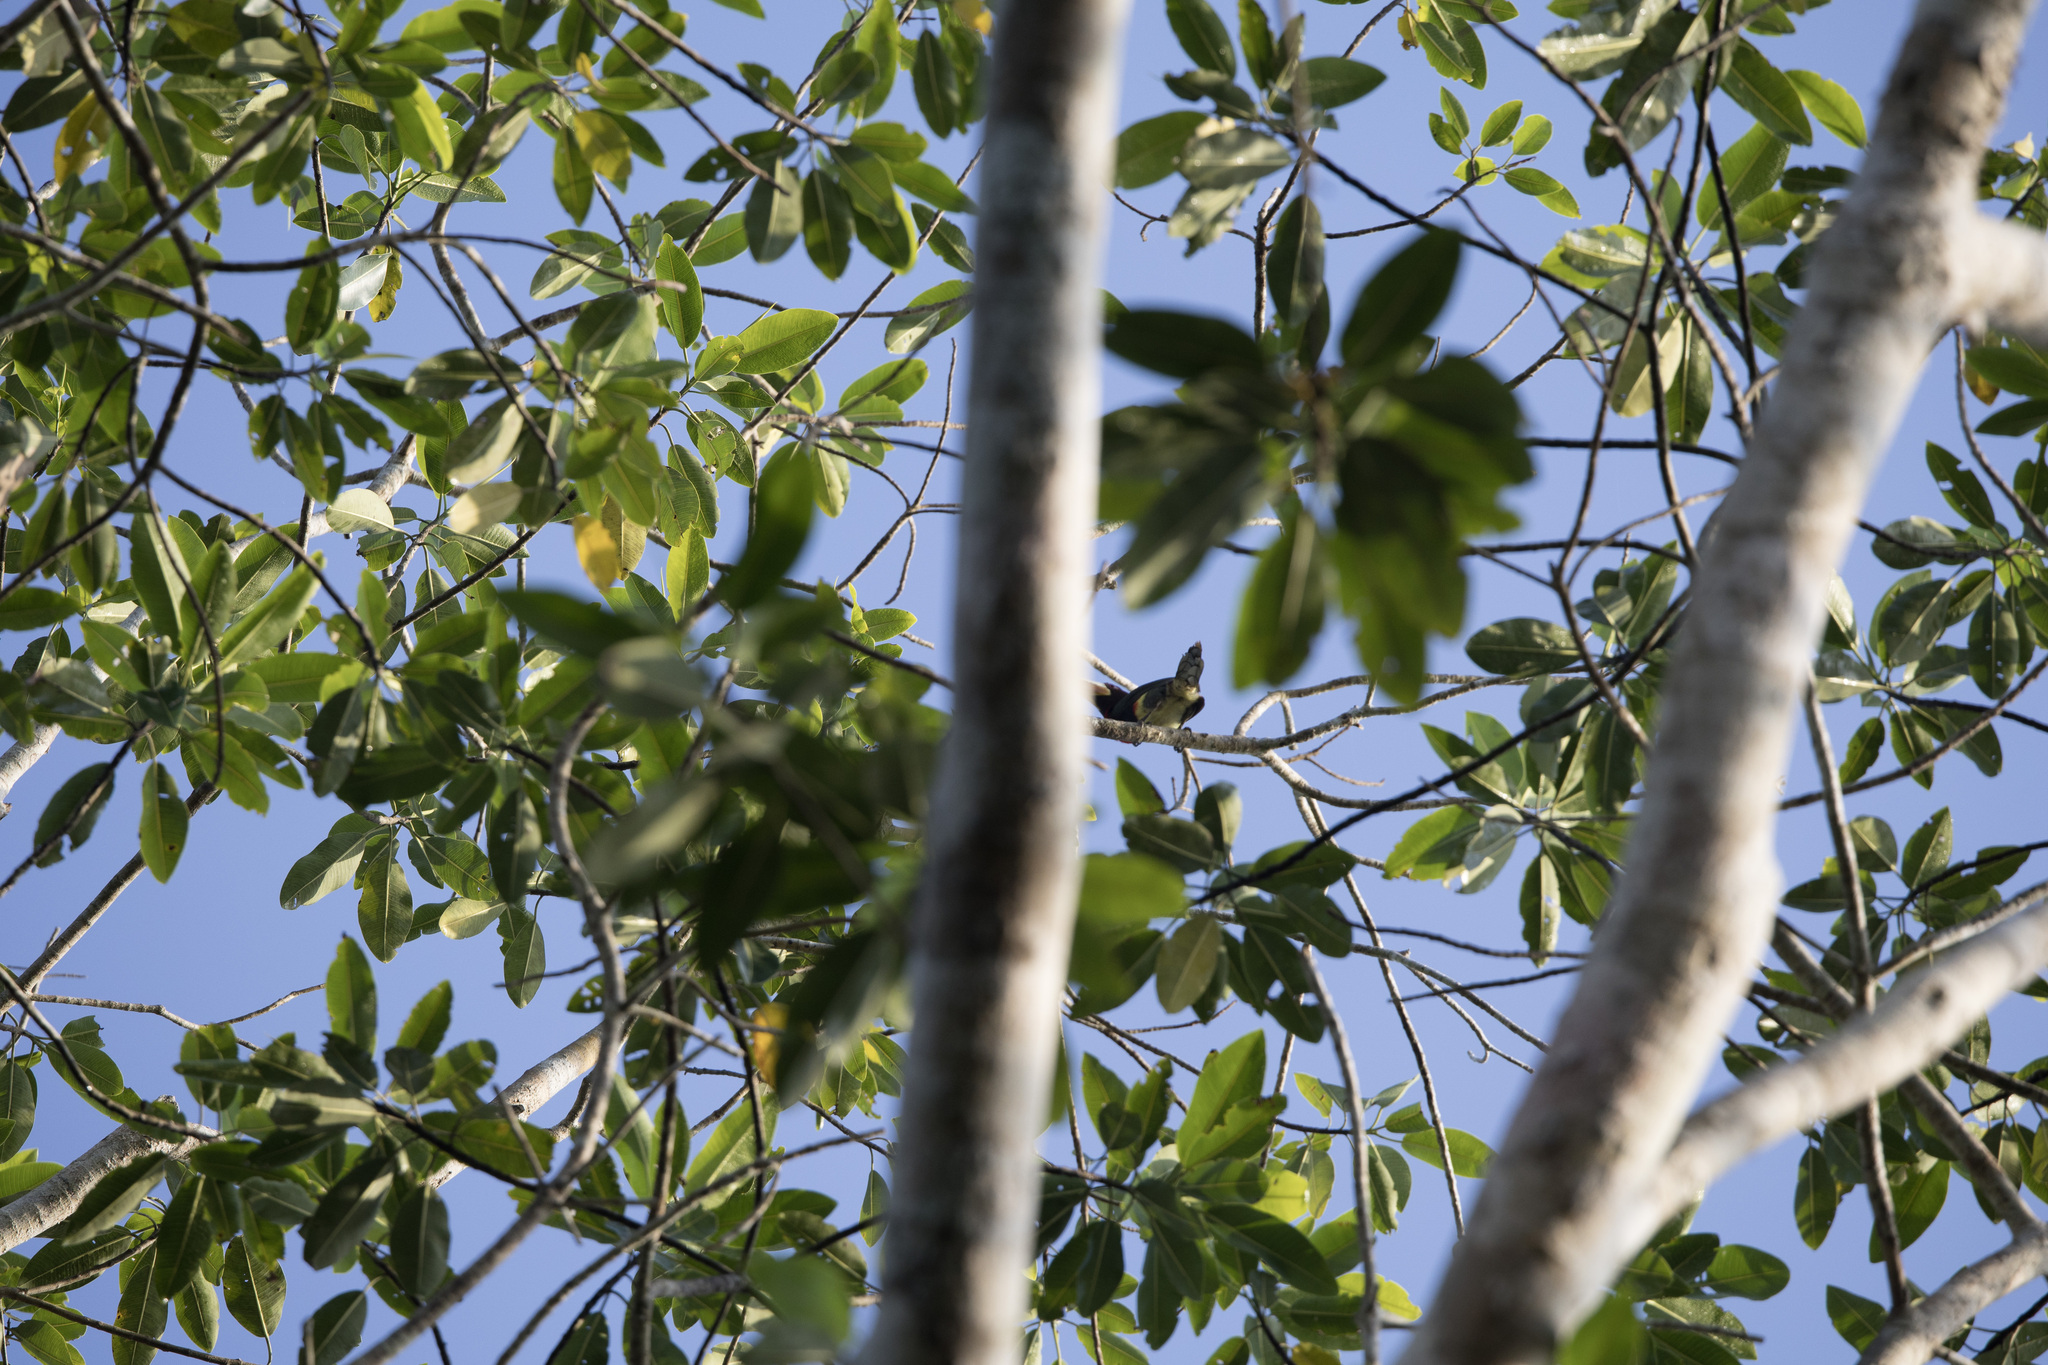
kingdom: Animalia
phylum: Chordata
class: Aves
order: Piciformes
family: Ramphastidae
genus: Pteroglossus
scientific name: Pteroglossus azara
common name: Ivory-billed aracari
